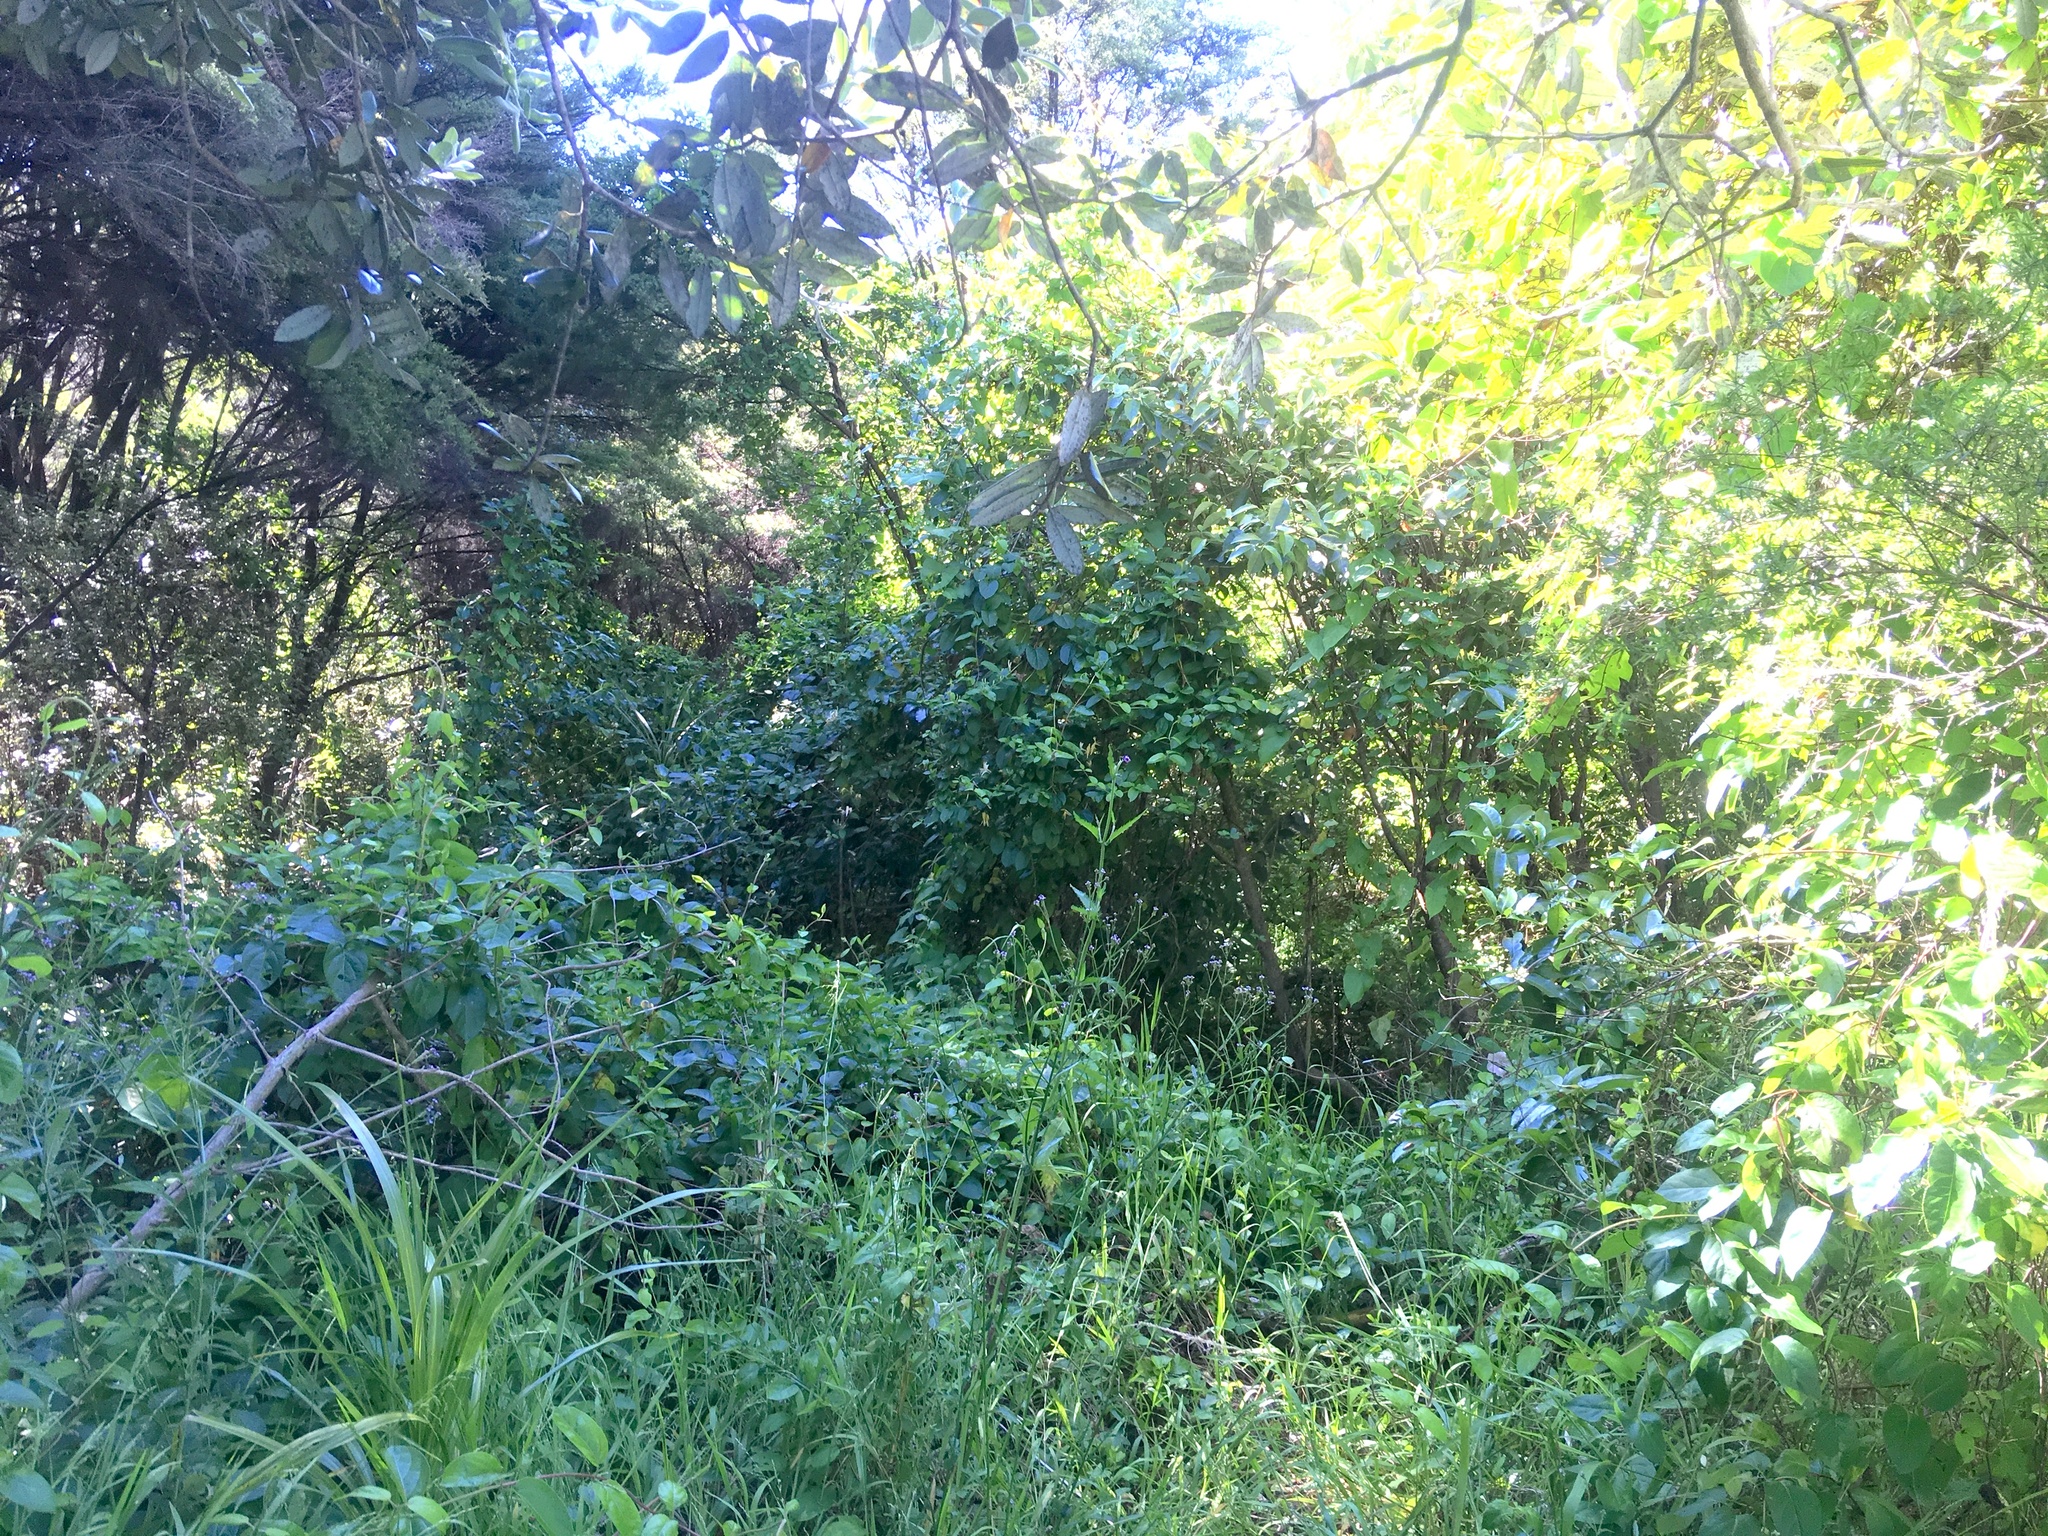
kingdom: Plantae
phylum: Tracheophyta
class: Magnoliopsida
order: Dipsacales
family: Caprifoliaceae
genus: Lonicera
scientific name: Lonicera japonica
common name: Japanese honeysuckle
